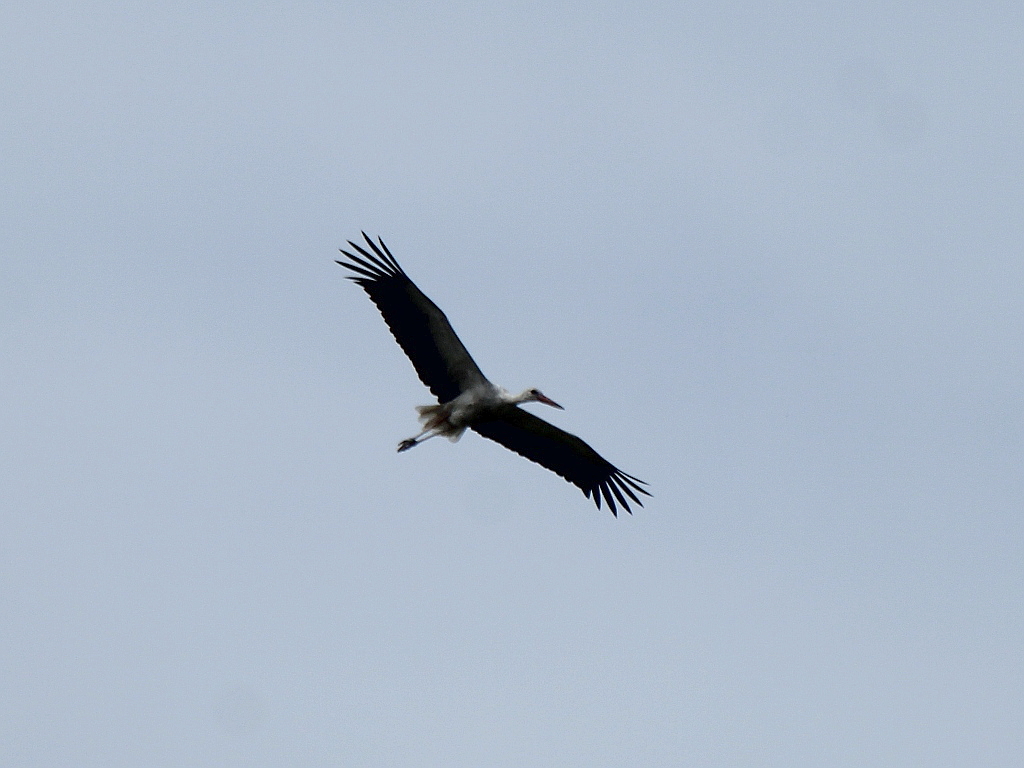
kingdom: Animalia
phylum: Chordata
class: Aves
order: Ciconiiformes
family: Ciconiidae
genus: Ciconia
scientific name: Ciconia ciconia
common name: White stork
